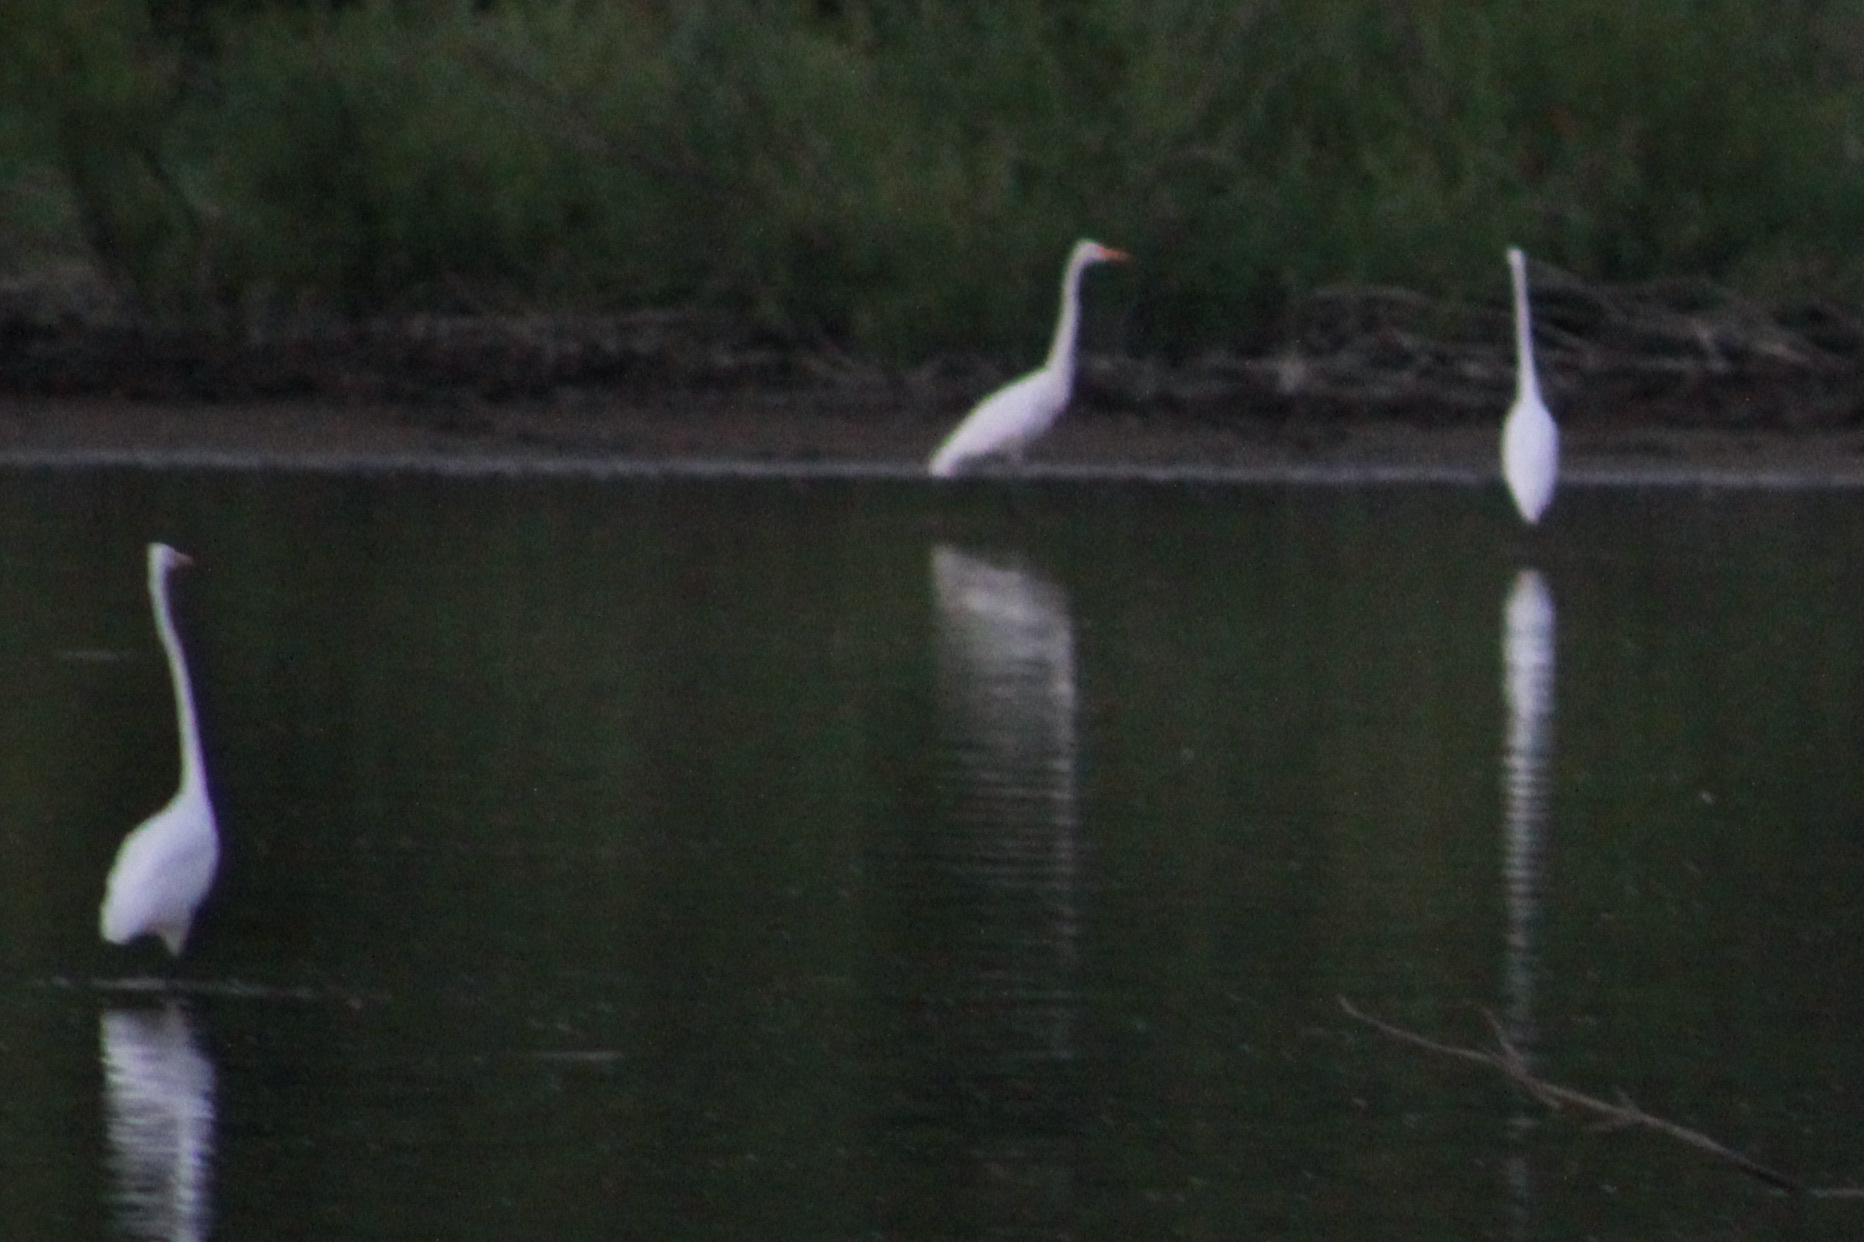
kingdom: Animalia
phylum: Chordata
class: Aves
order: Pelecaniformes
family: Ardeidae
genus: Ardea
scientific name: Ardea alba
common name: Great egret
